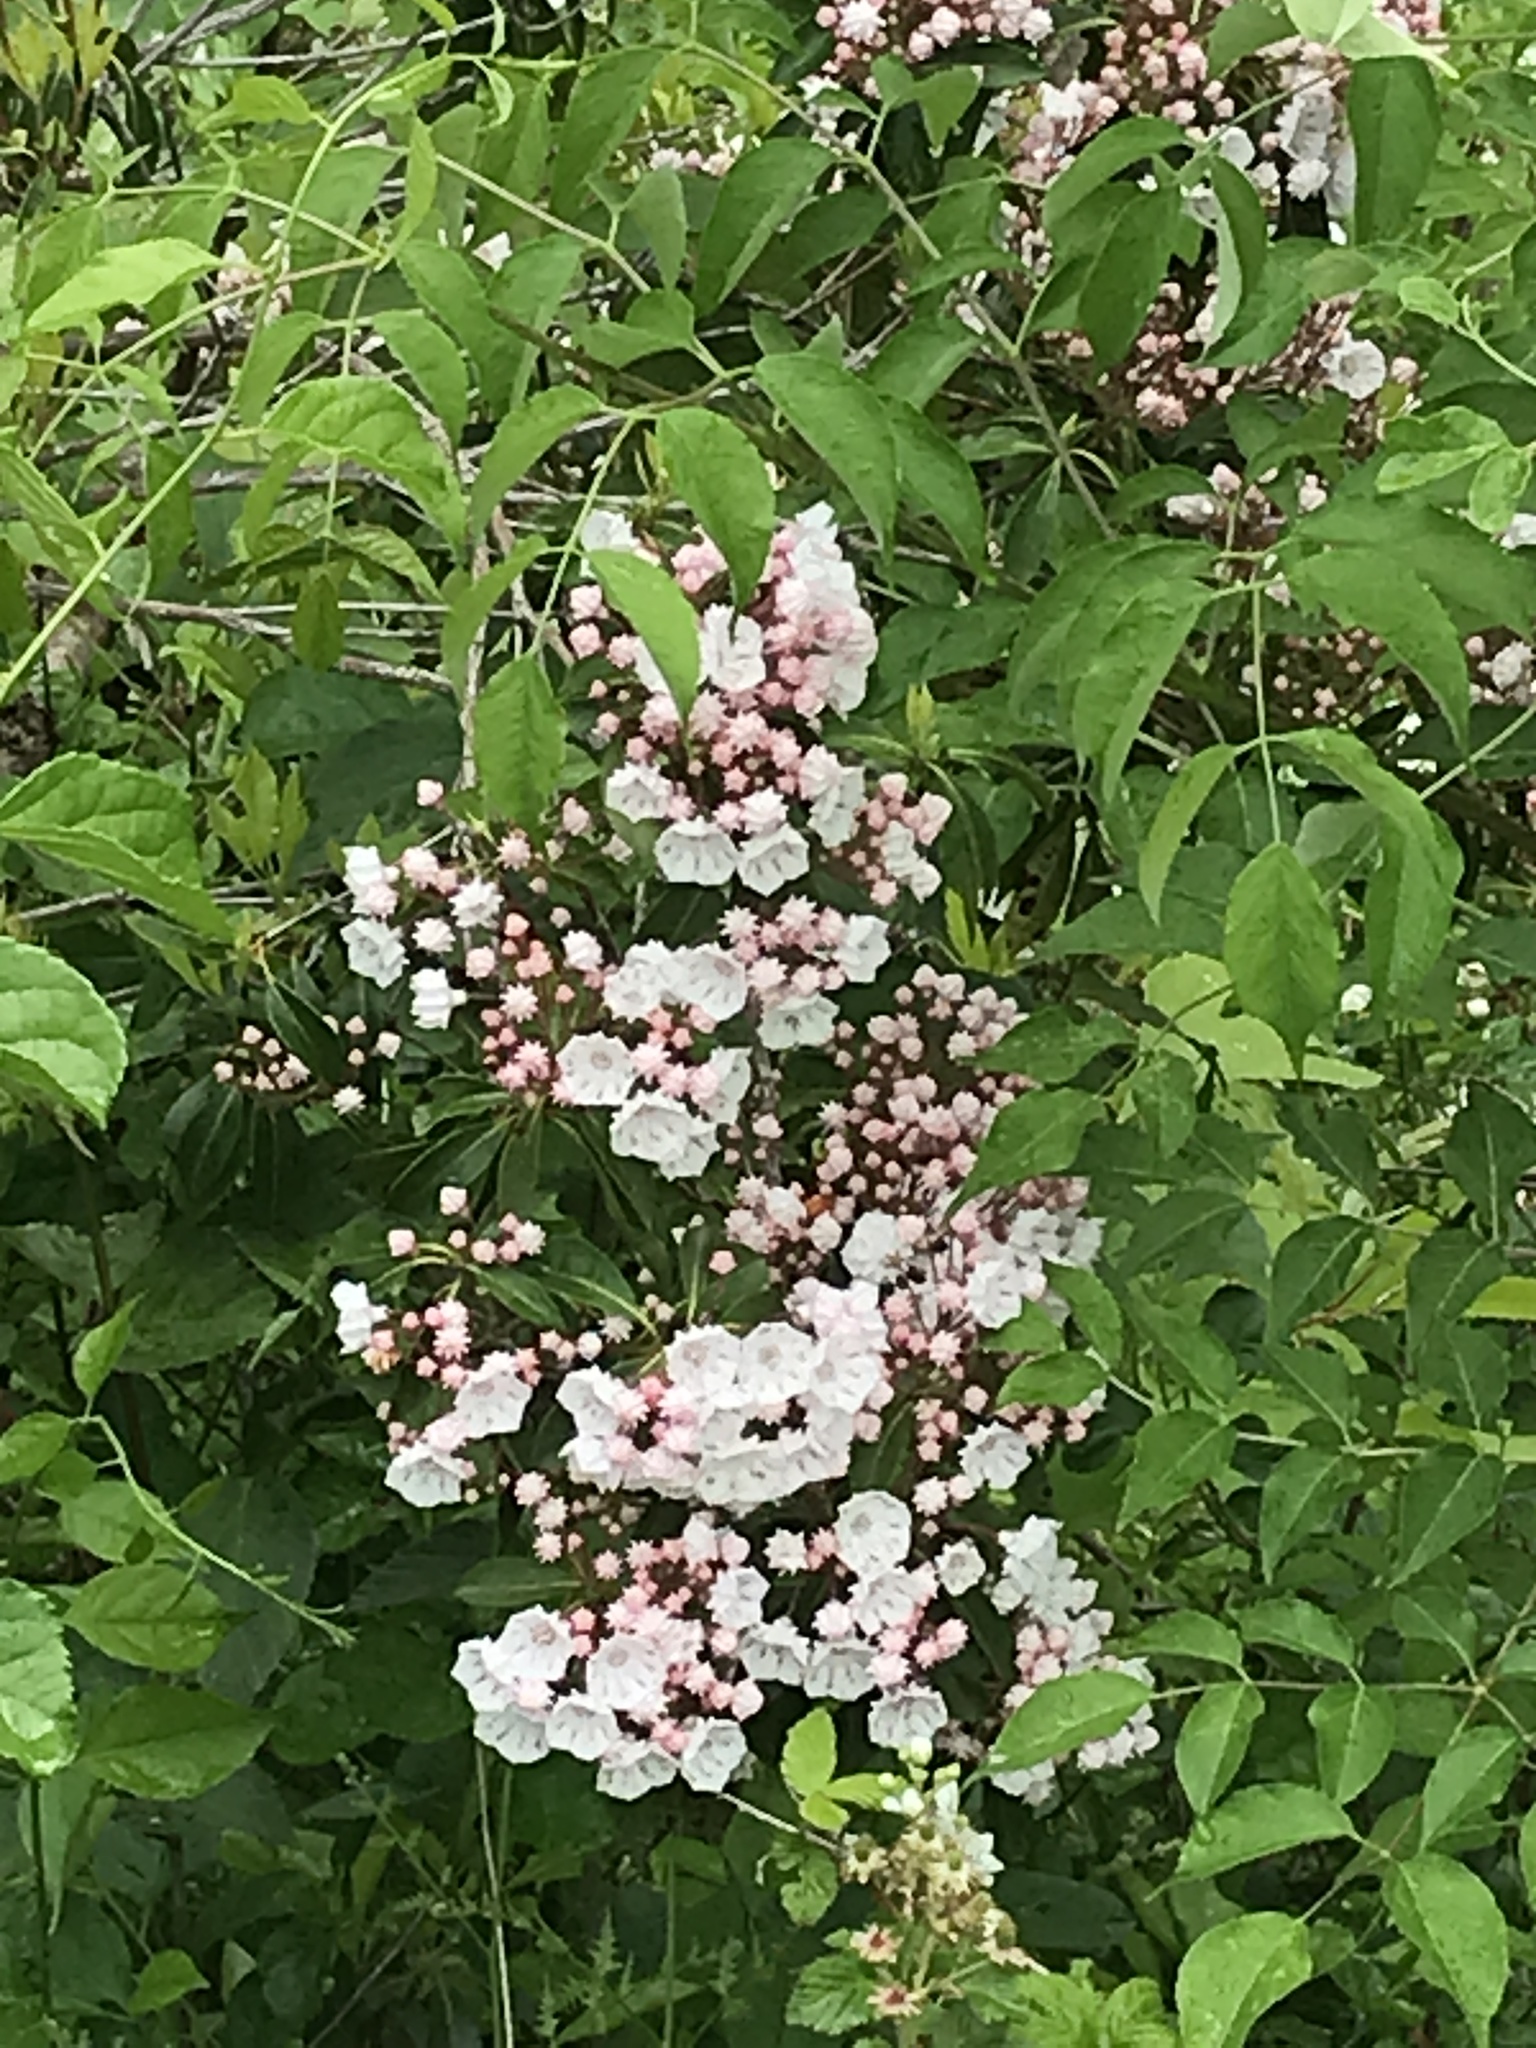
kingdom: Plantae
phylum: Tracheophyta
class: Magnoliopsida
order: Ericales
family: Ericaceae
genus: Kalmia
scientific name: Kalmia latifolia
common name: Mountain-laurel
